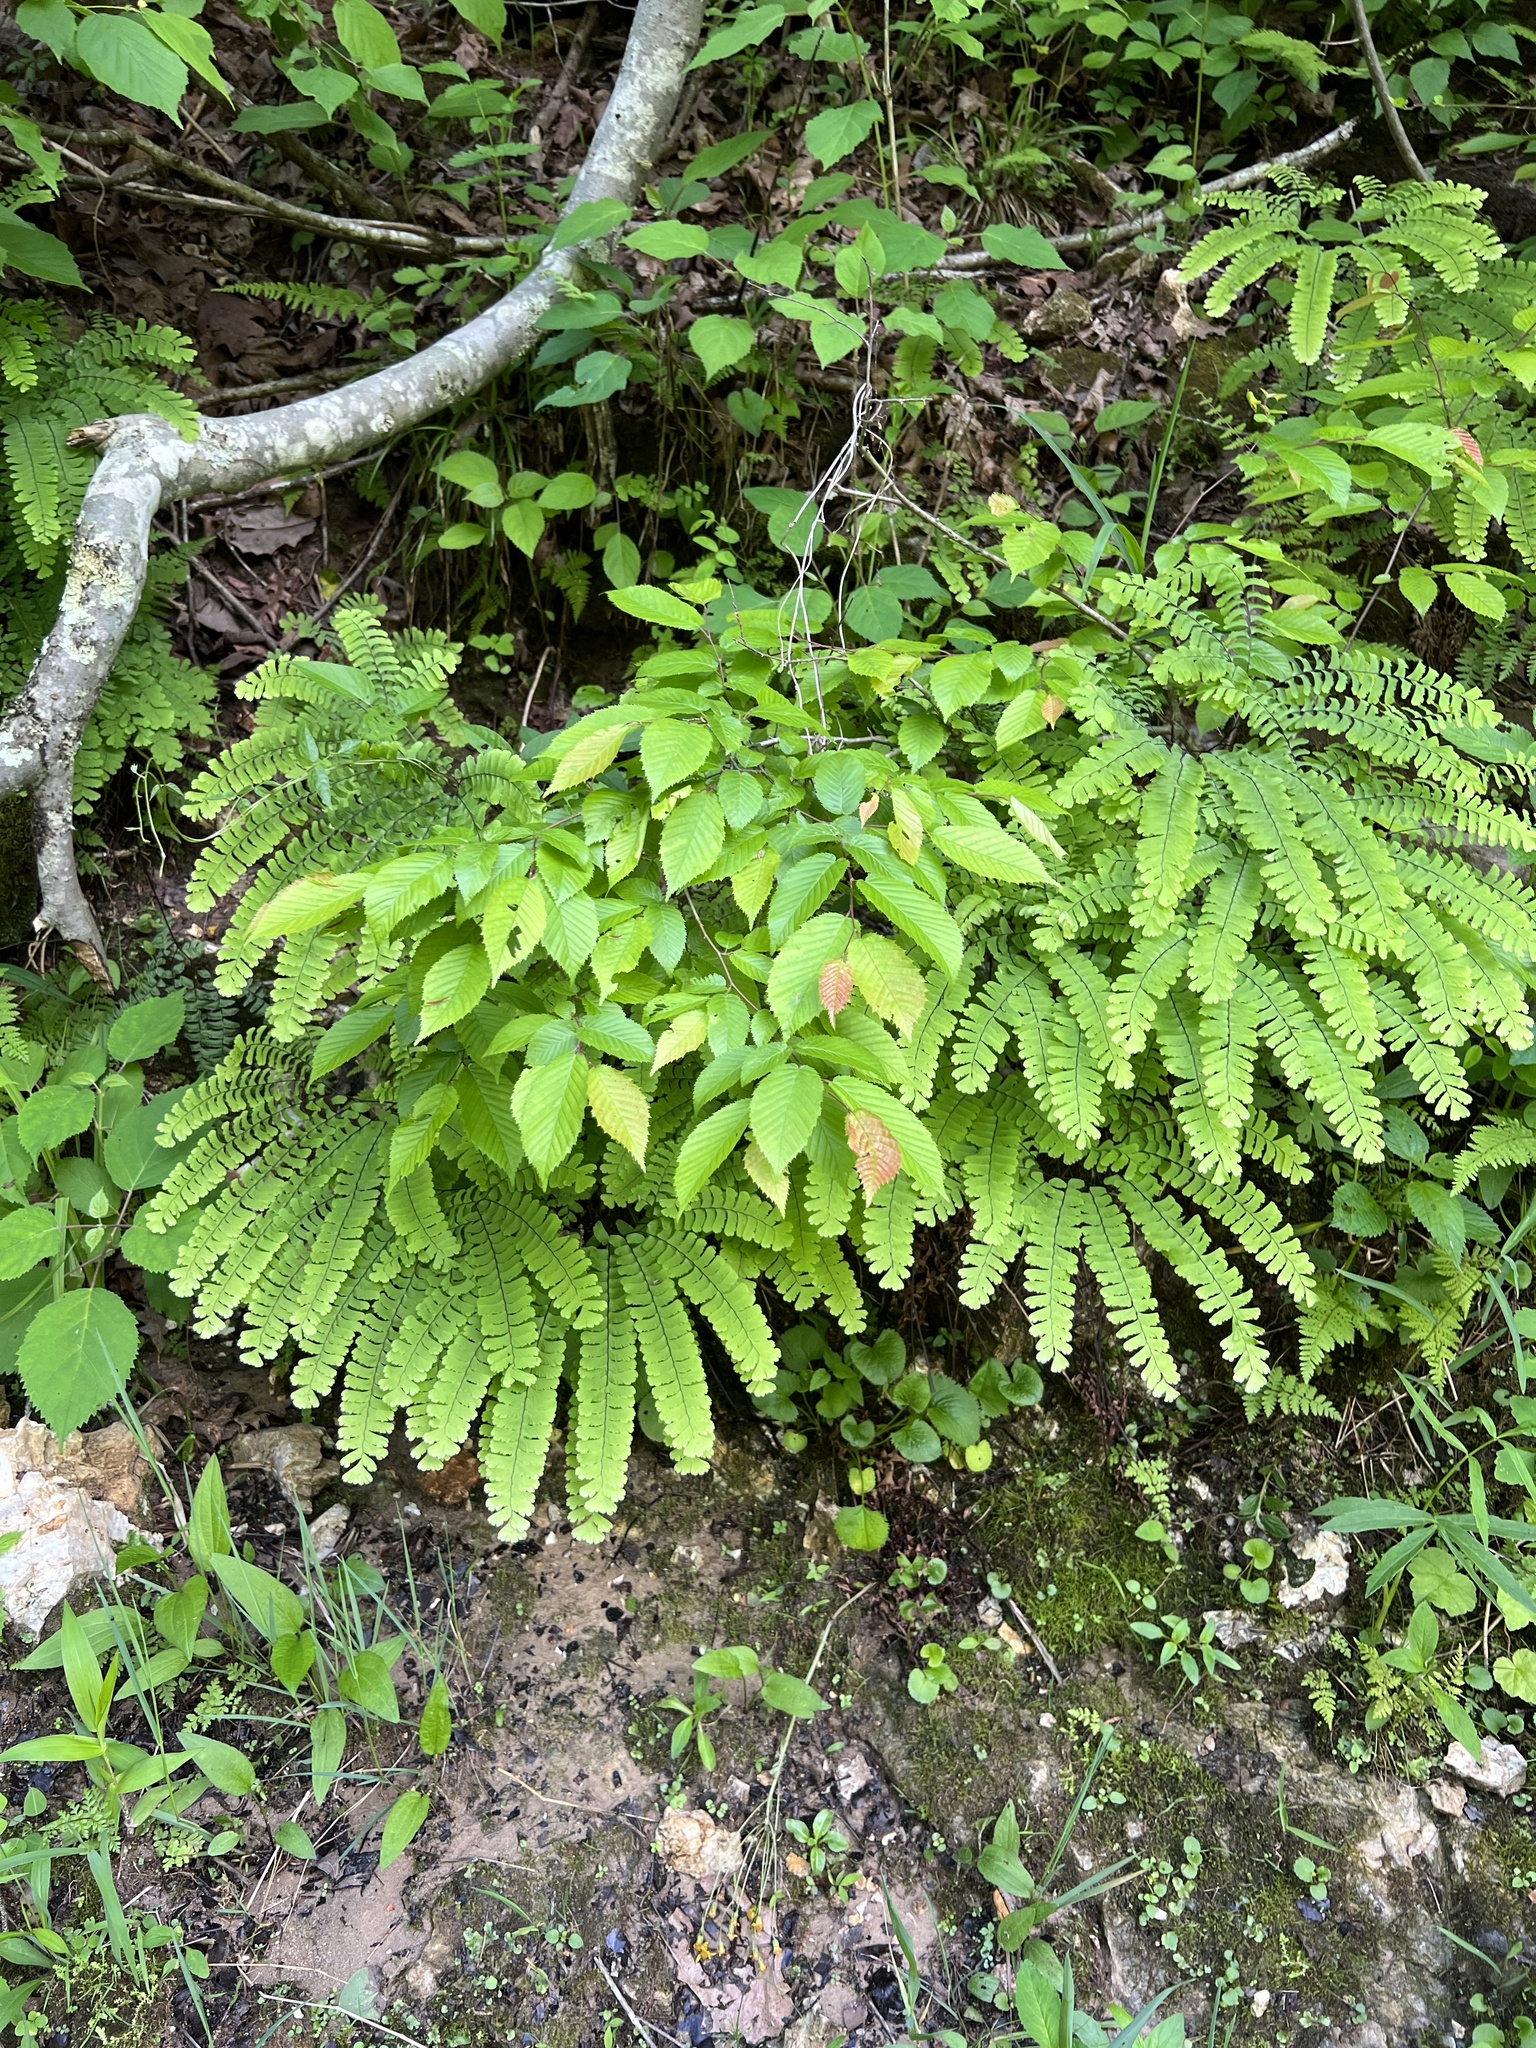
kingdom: Plantae
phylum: Tracheophyta
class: Polypodiopsida
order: Polypodiales
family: Pteridaceae
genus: Adiantum
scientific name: Adiantum pedatum
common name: Five-finger fern
